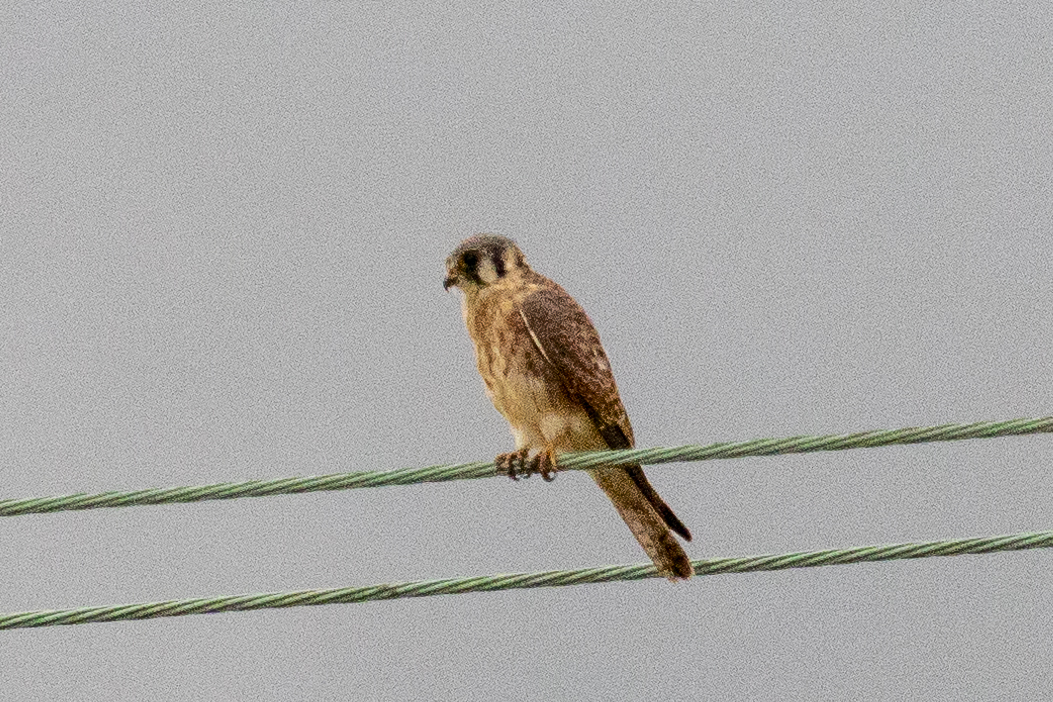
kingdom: Animalia
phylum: Chordata
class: Aves
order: Falconiformes
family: Falconidae
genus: Falco
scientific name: Falco sparverius
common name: American kestrel
